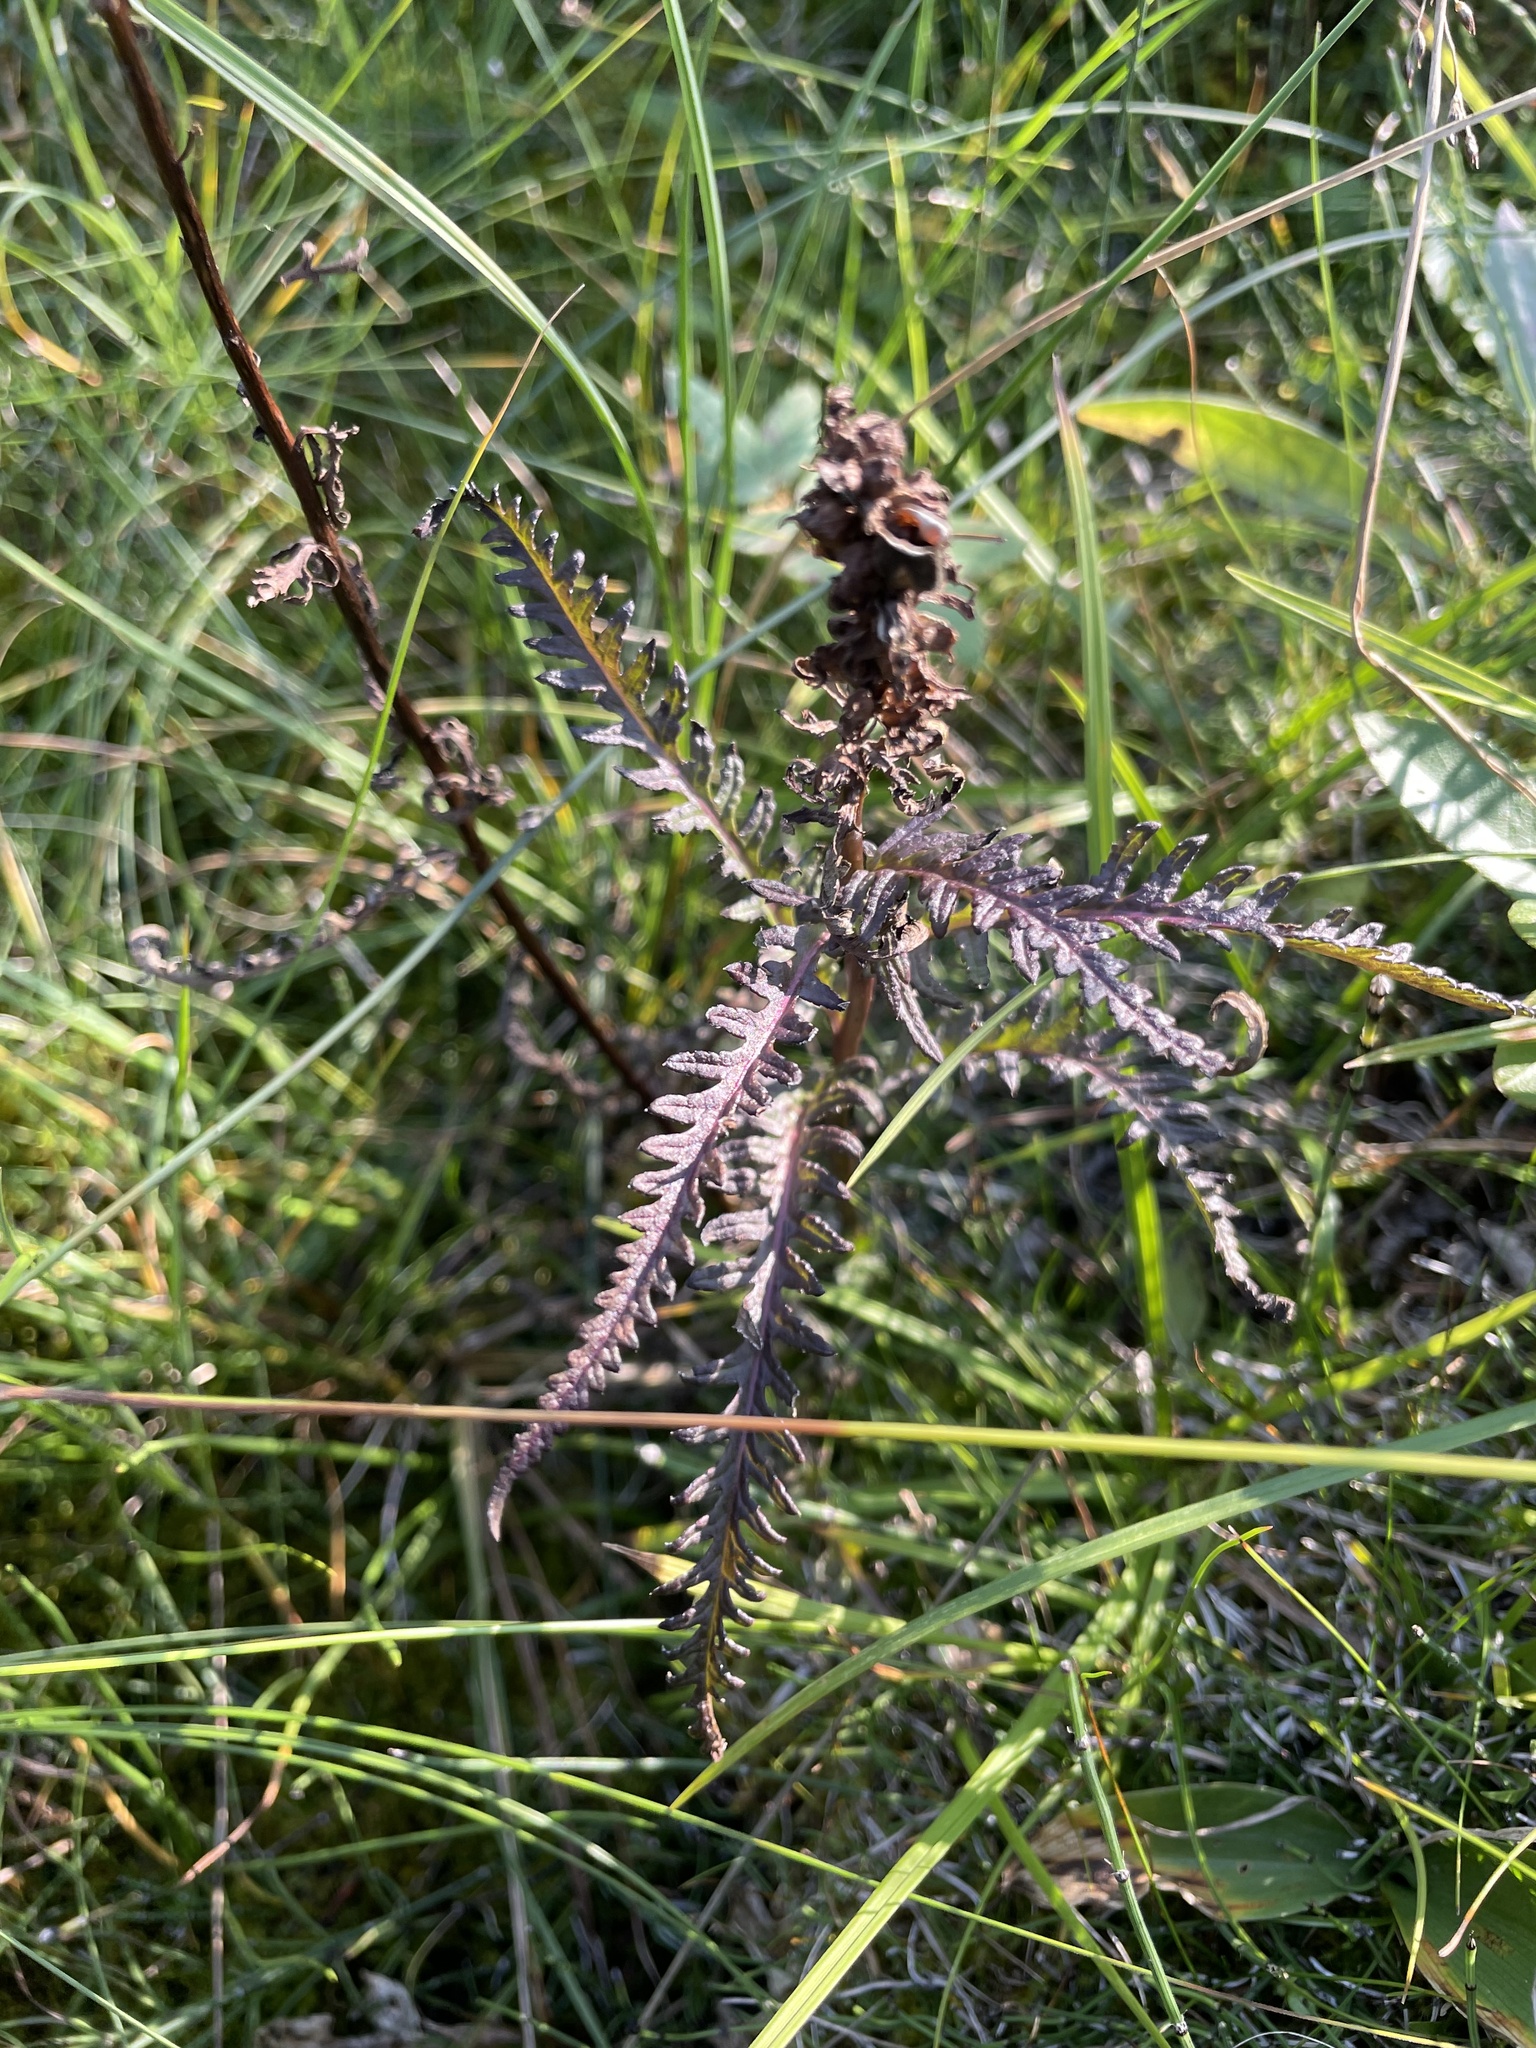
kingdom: Plantae
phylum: Tracheophyta
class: Magnoliopsida
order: Lamiales
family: Orobanchaceae
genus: Pedicularis
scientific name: Pedicularis groenlandica
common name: Elephant's-head
